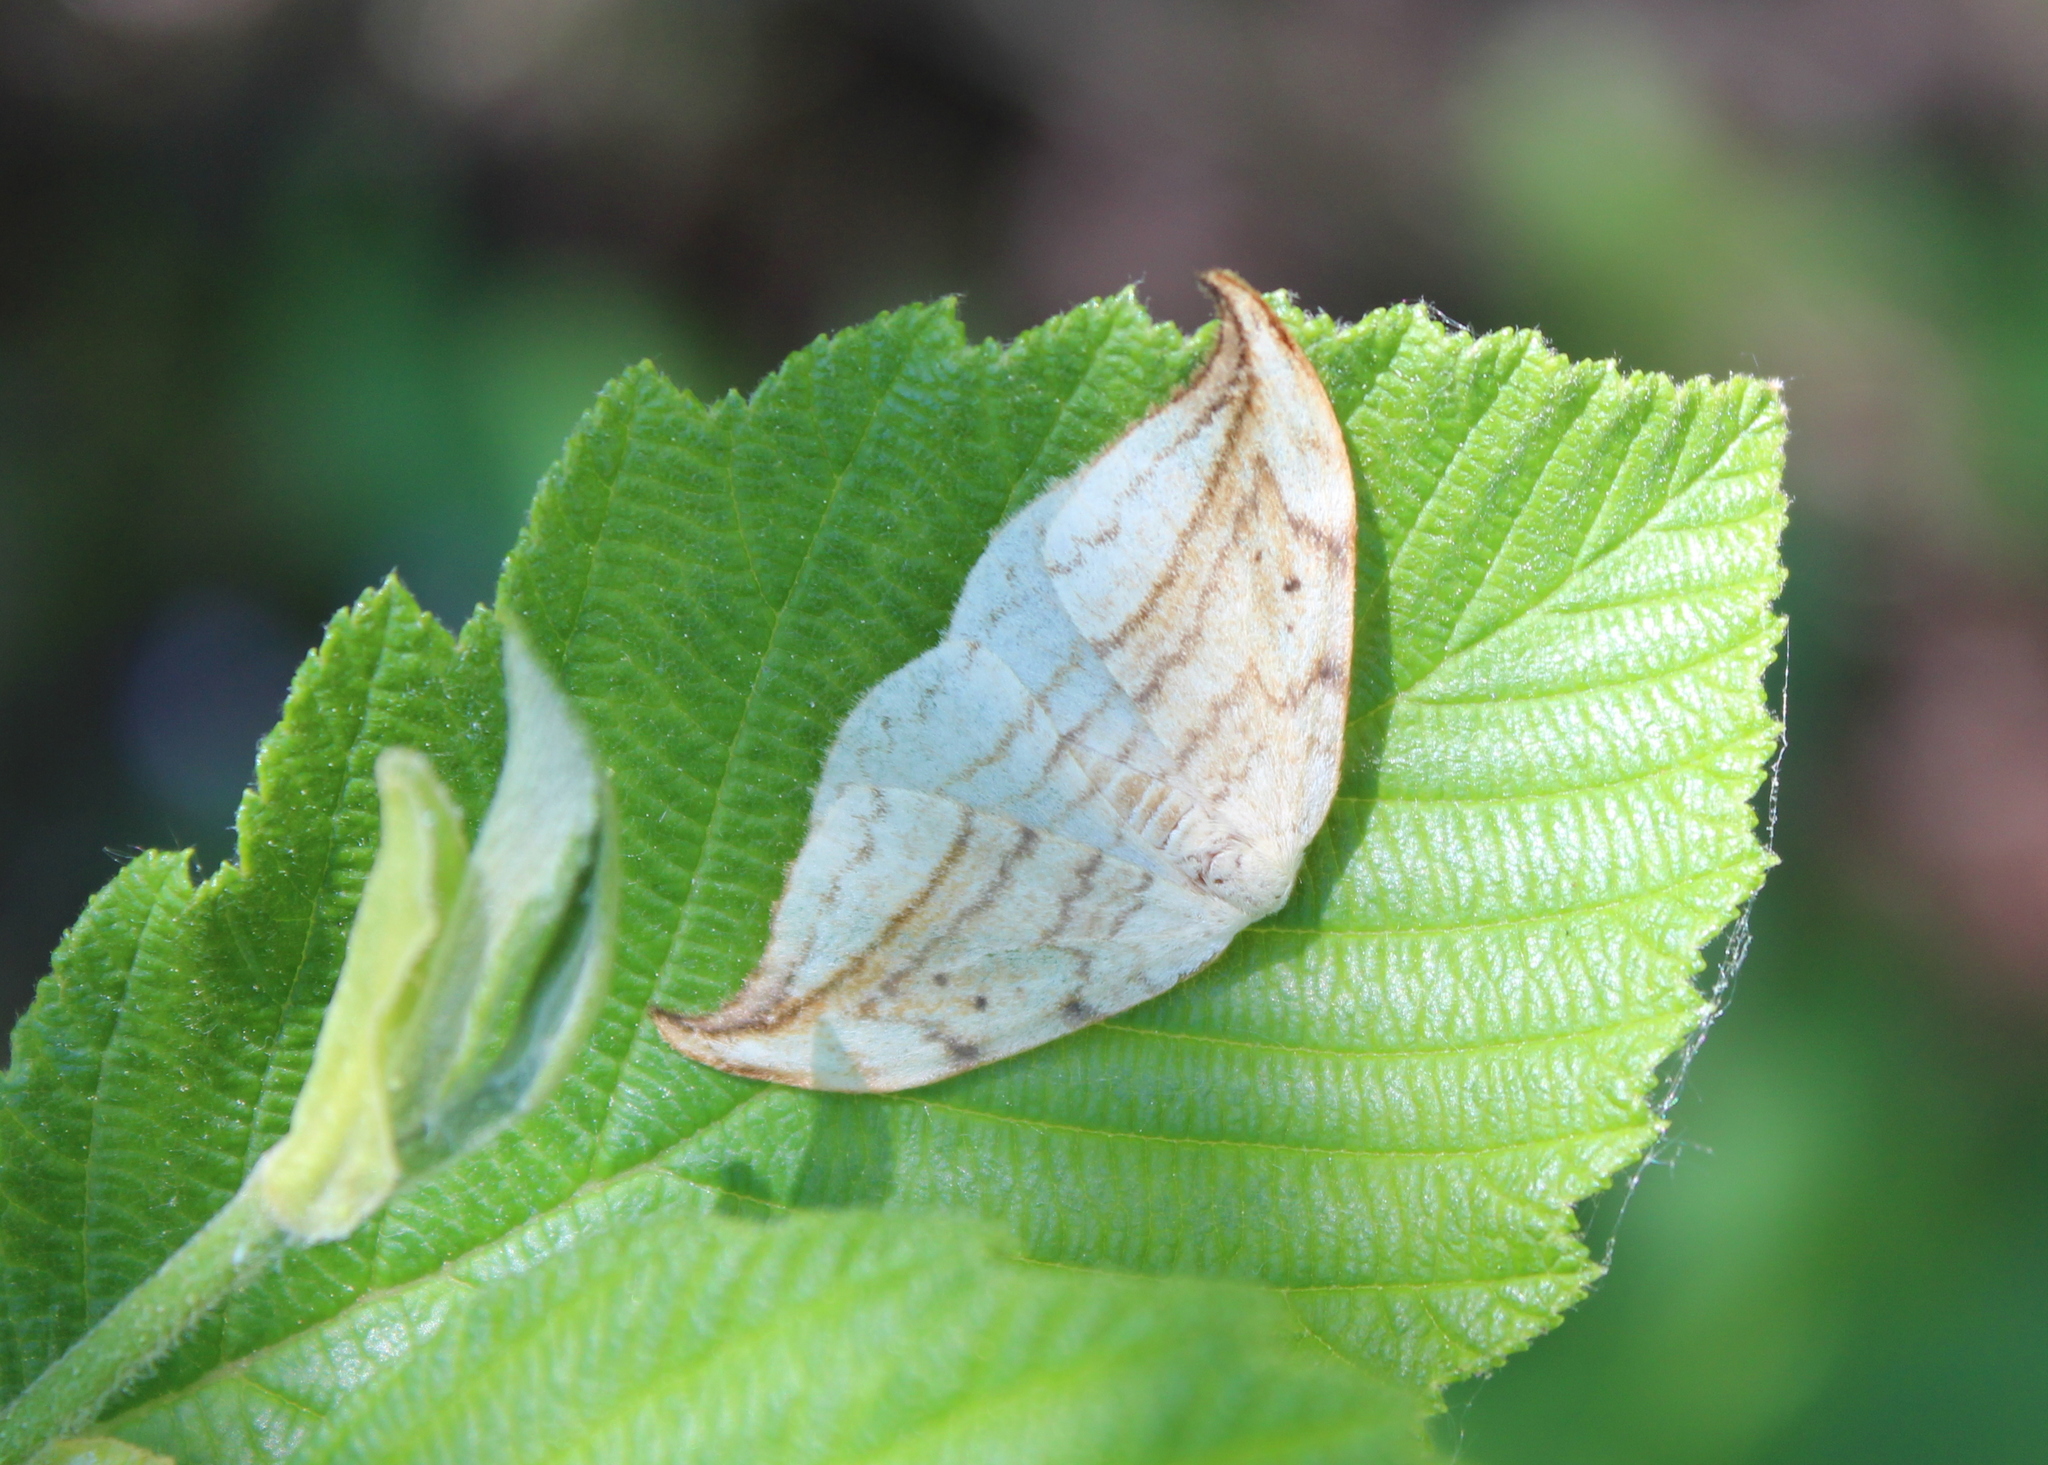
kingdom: Animalia
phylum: Arthropoda
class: Insecta
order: Lepidoptera
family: Drepanidae
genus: Drepana
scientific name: Drepana arcuata
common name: Arched hooktip moth
